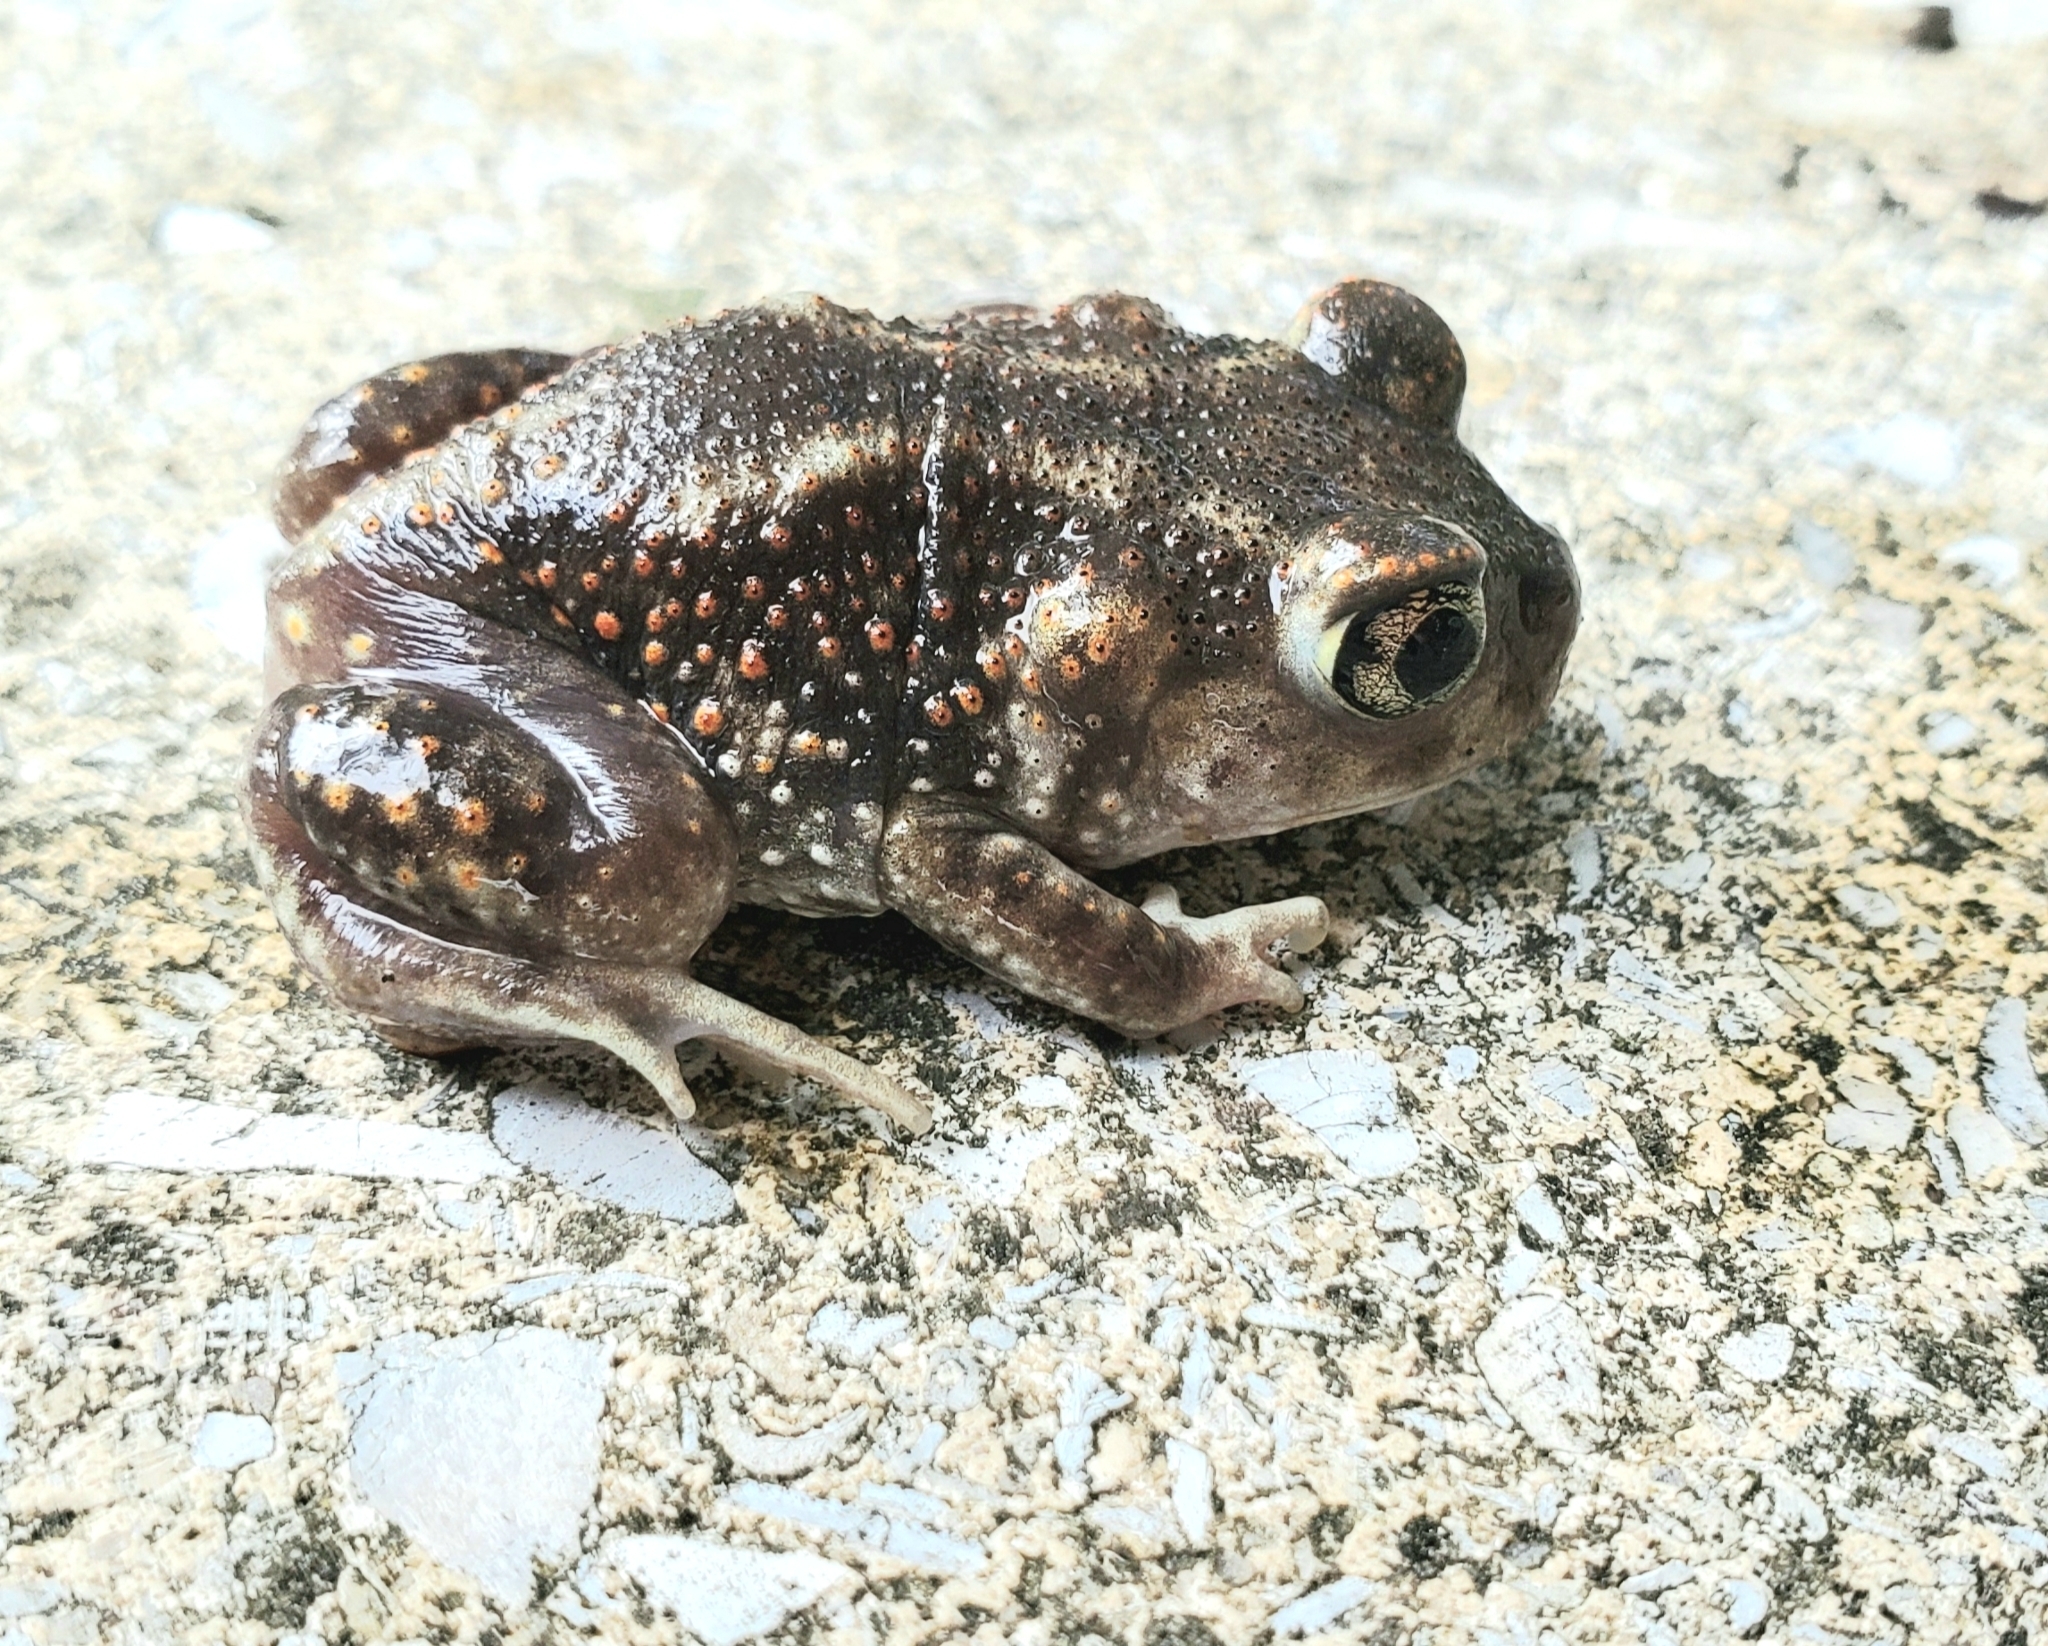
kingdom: Animalia
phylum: Chordata
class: Amphibia
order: Anura
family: Scaphiopodidae
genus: Scaphiopus
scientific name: Scaphiopus holbrookii
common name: Eastern spadefoot toad
